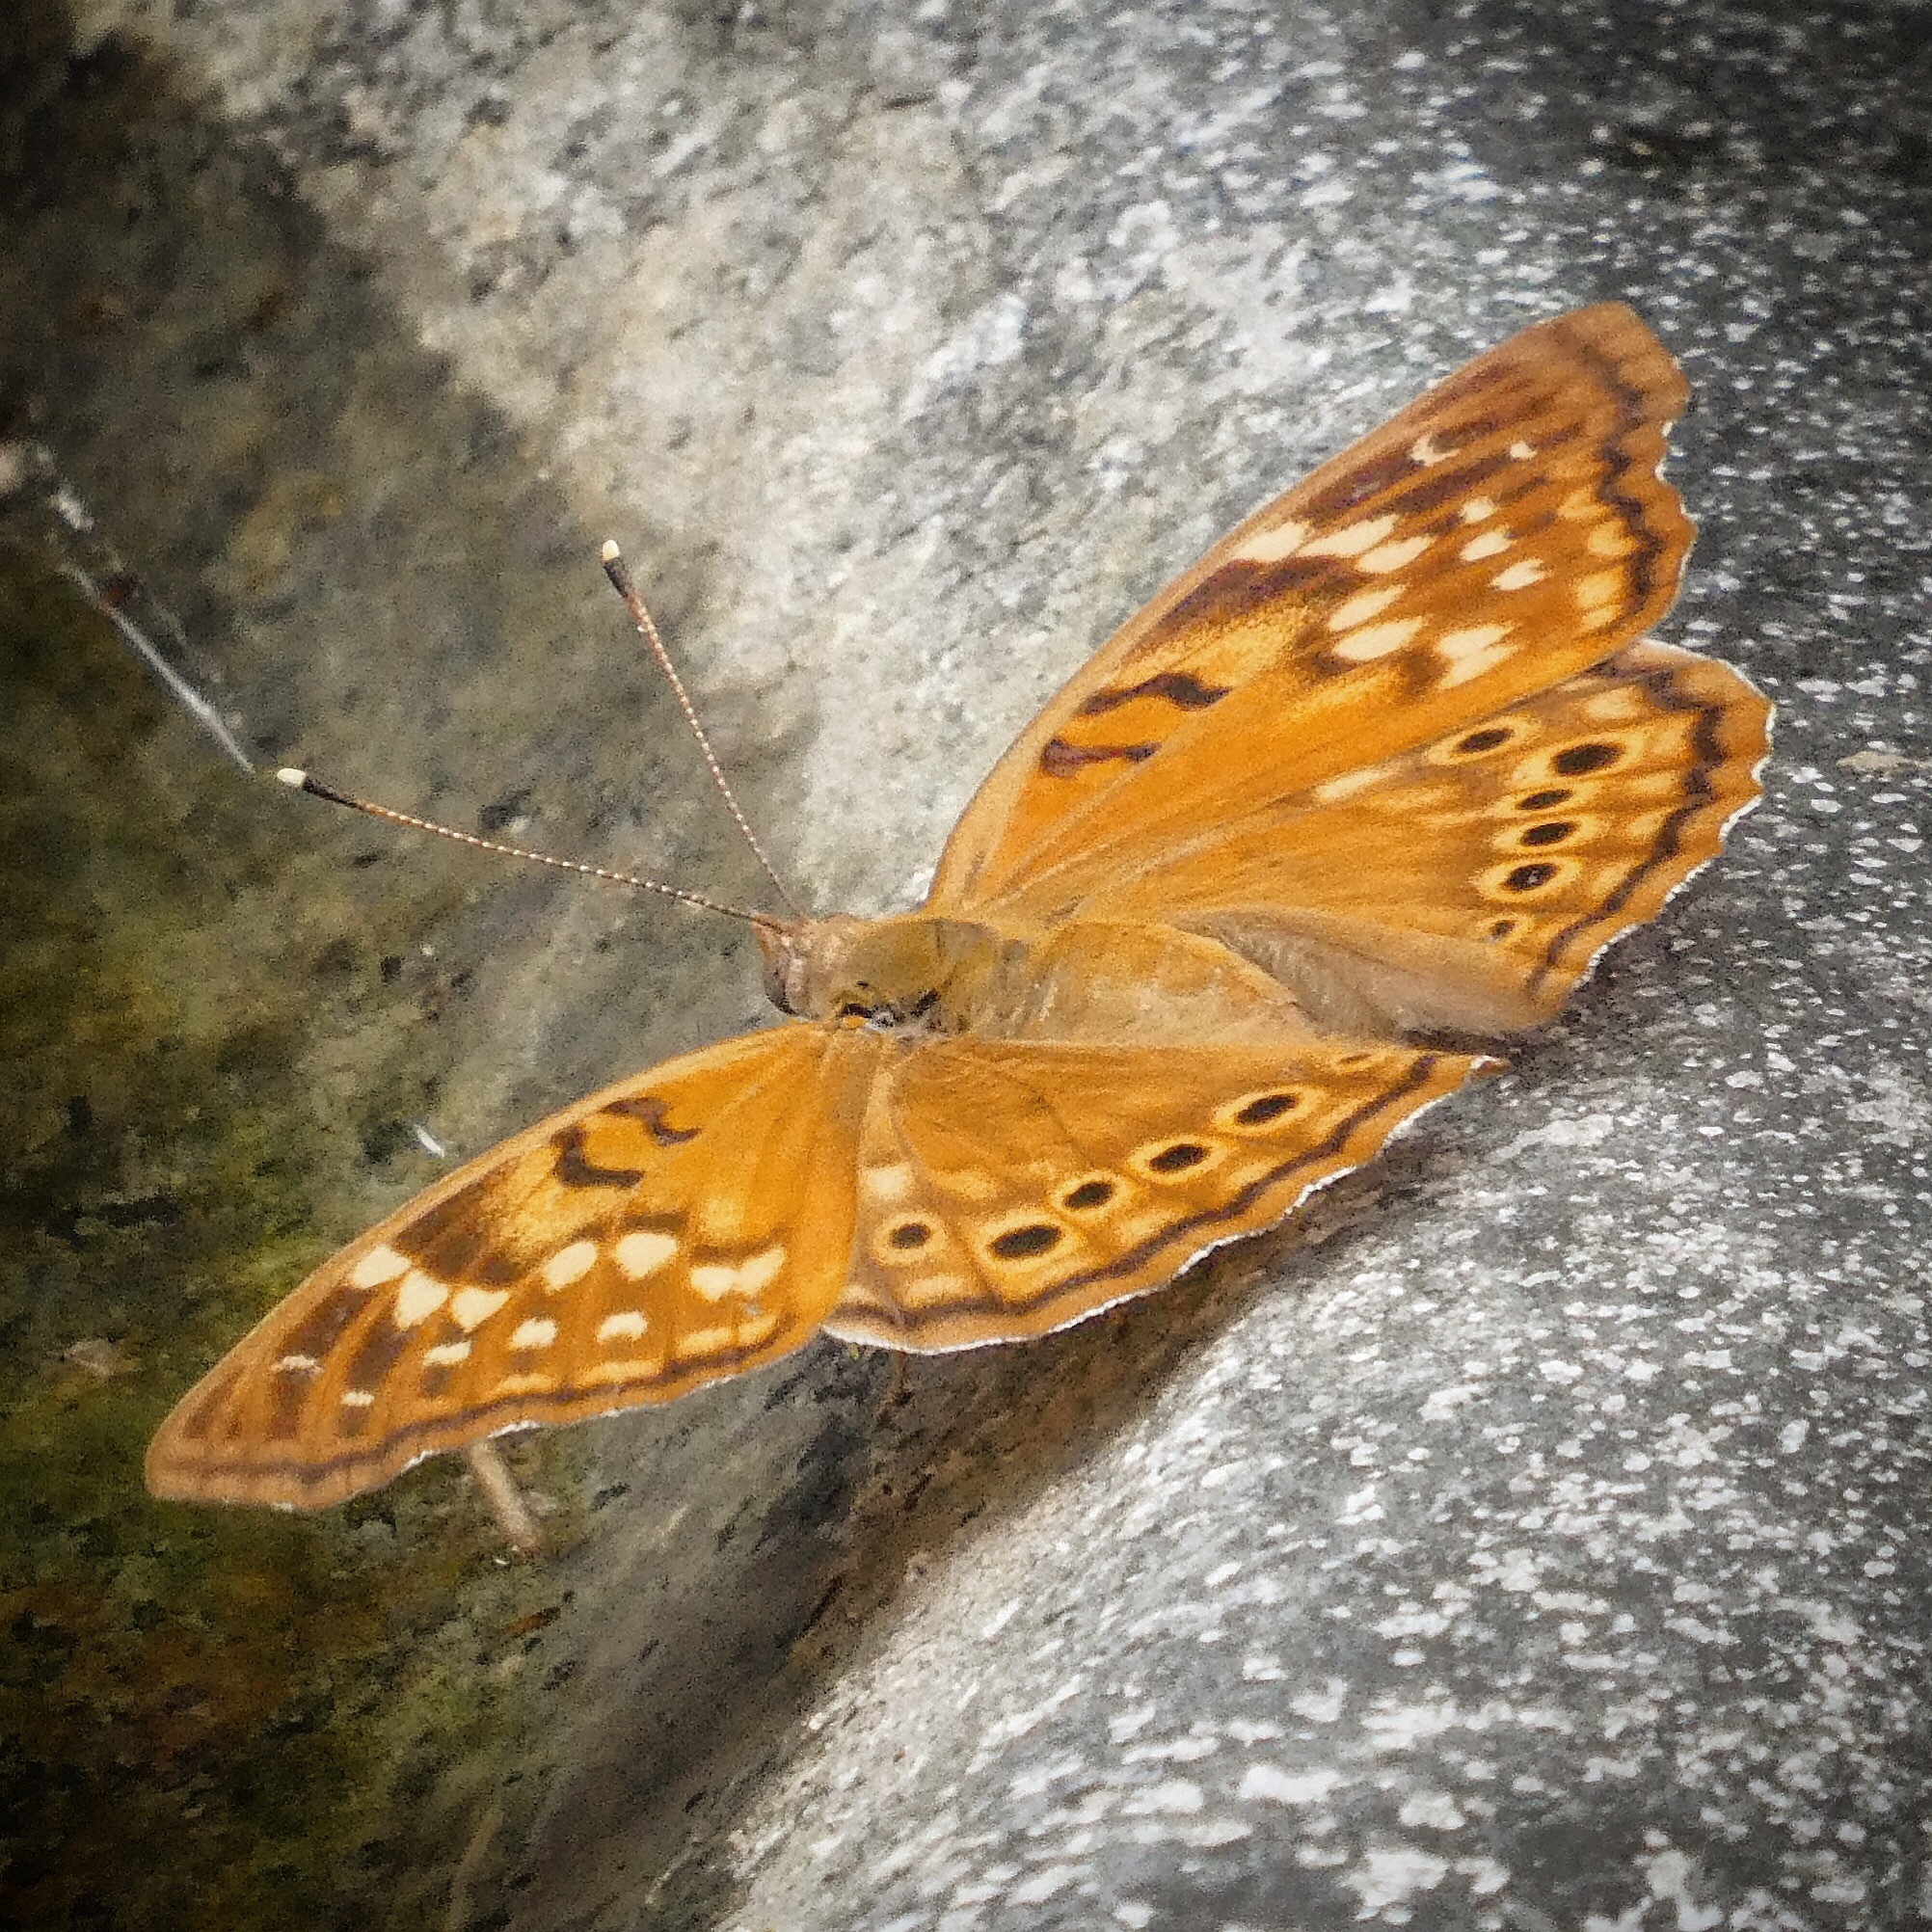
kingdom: Animalia
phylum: Arthropoda
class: Insecta
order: Lepidoptera
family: Nymphalidae
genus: Asterocampa
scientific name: Asterocampa clyton
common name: Tawny emperor
